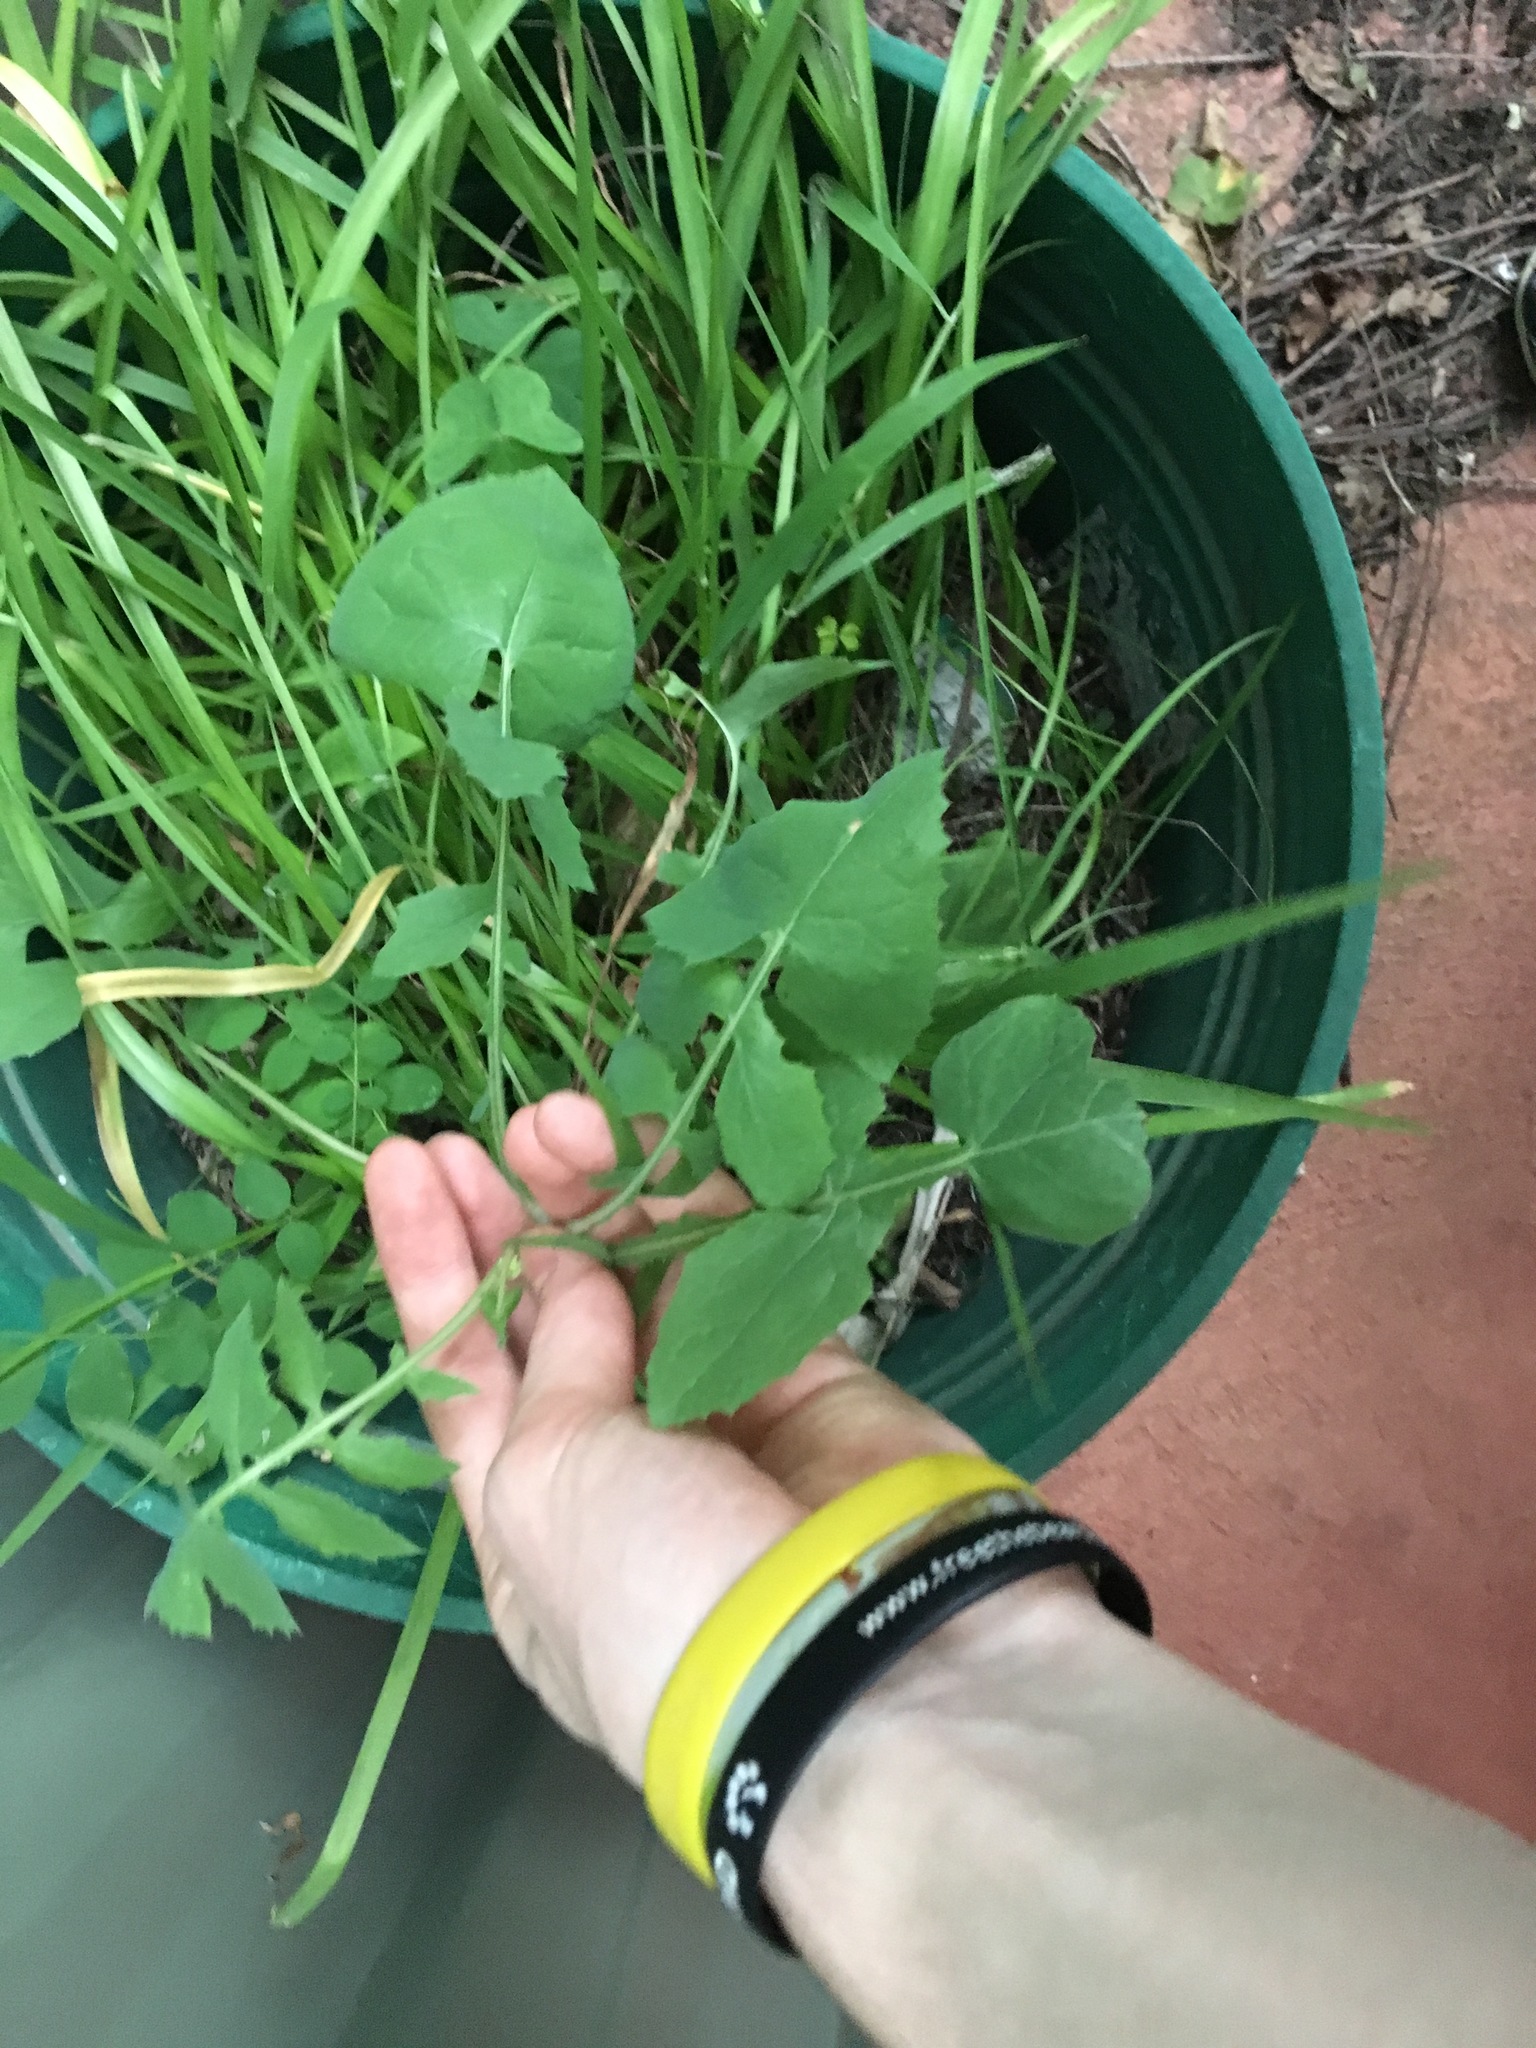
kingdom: Plantae
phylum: Tracheophyta
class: Magnoliopsida
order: Asterales
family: Asteraceae
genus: Sonchus
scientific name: Sonchus oleraceus
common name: Common sowthistle
